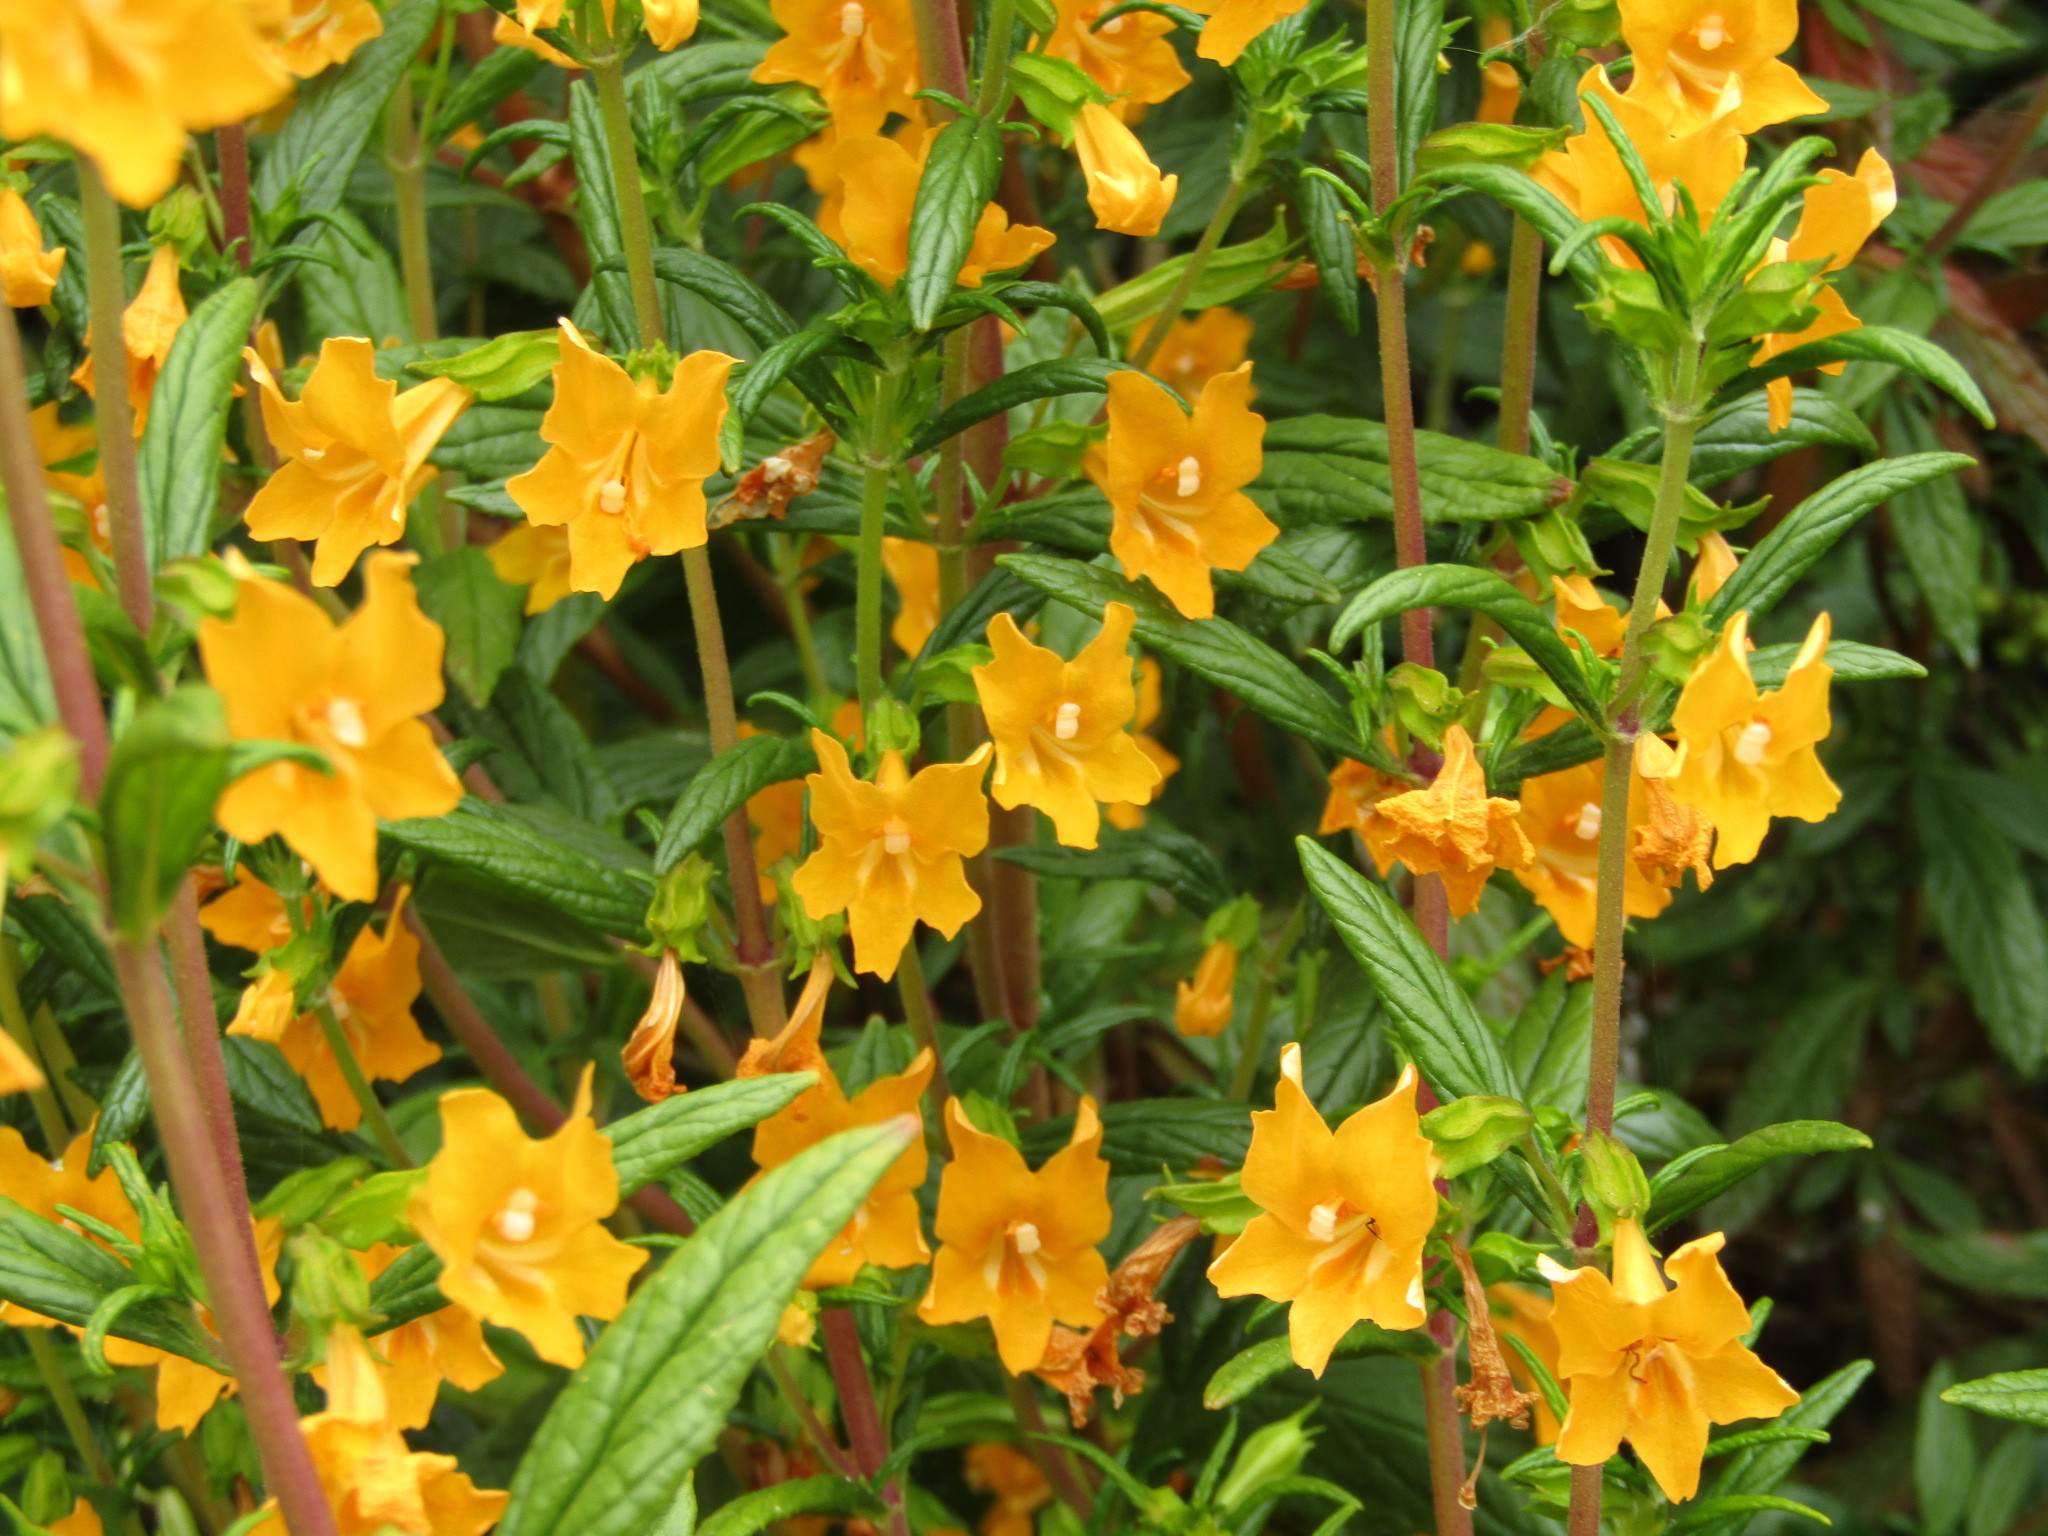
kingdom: Plantae
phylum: Tracheophyta
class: Magnoliopsida
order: Lamiales
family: Phrymaceae
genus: Diplacus
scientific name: Diplacus aurantiacus
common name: Bush monkey-flower
